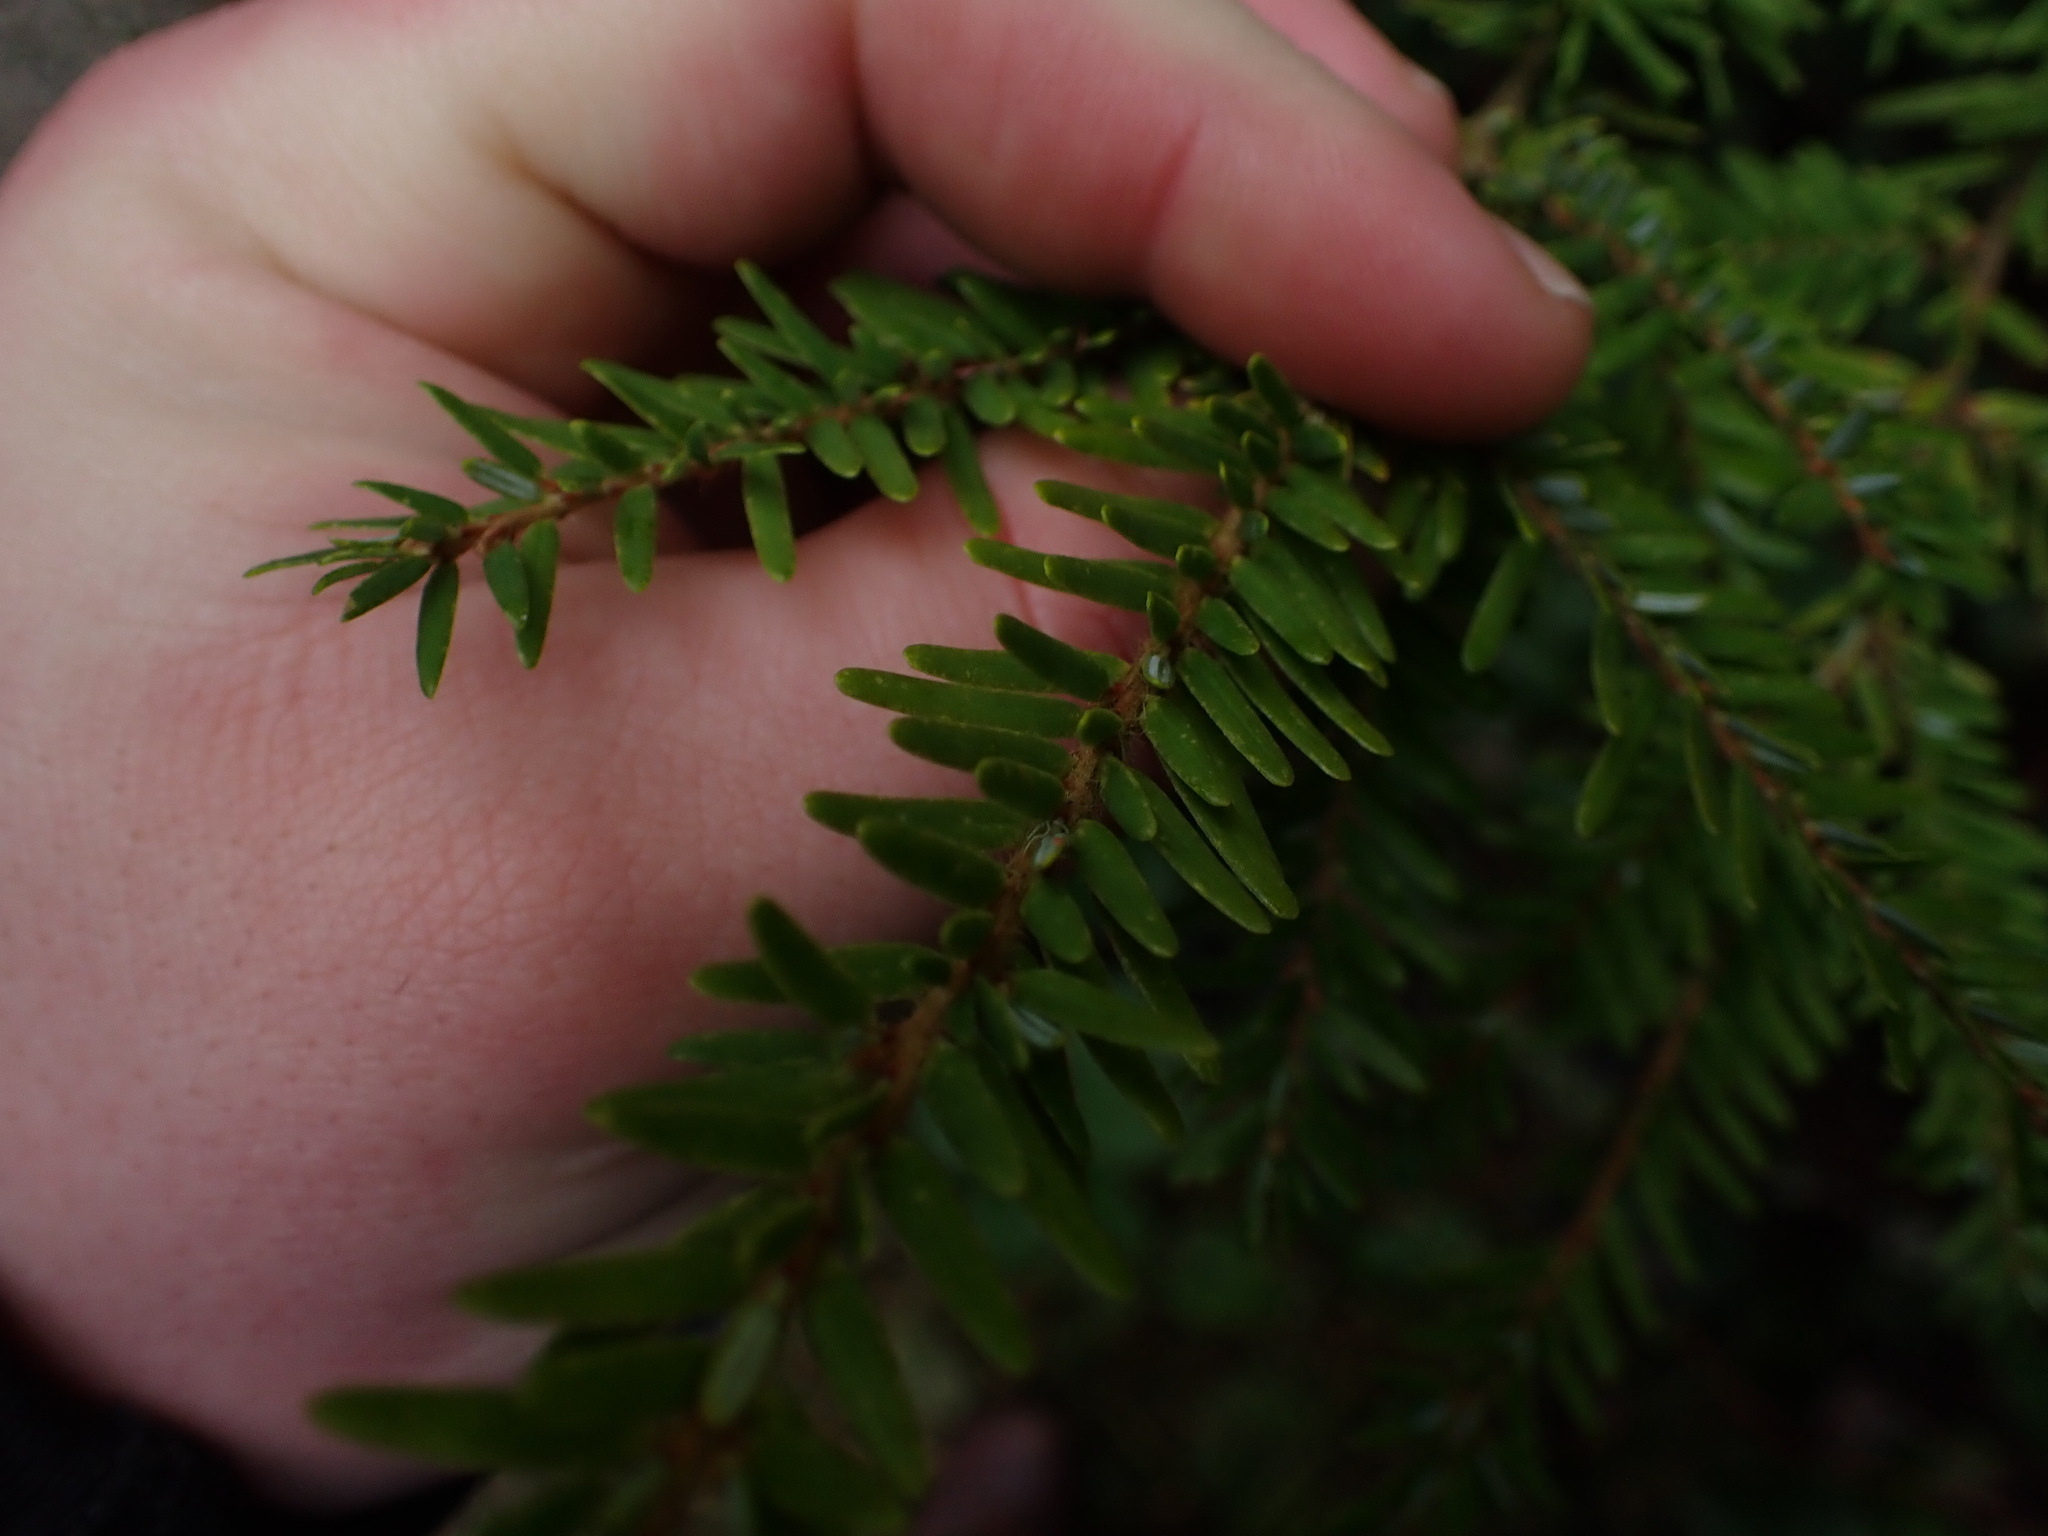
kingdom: Plantae
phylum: Tracheophyta
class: Pinopsida
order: Pinales
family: Pinaceae
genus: Tsuga
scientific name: Tsuga heterophylla
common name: Western hemlock
